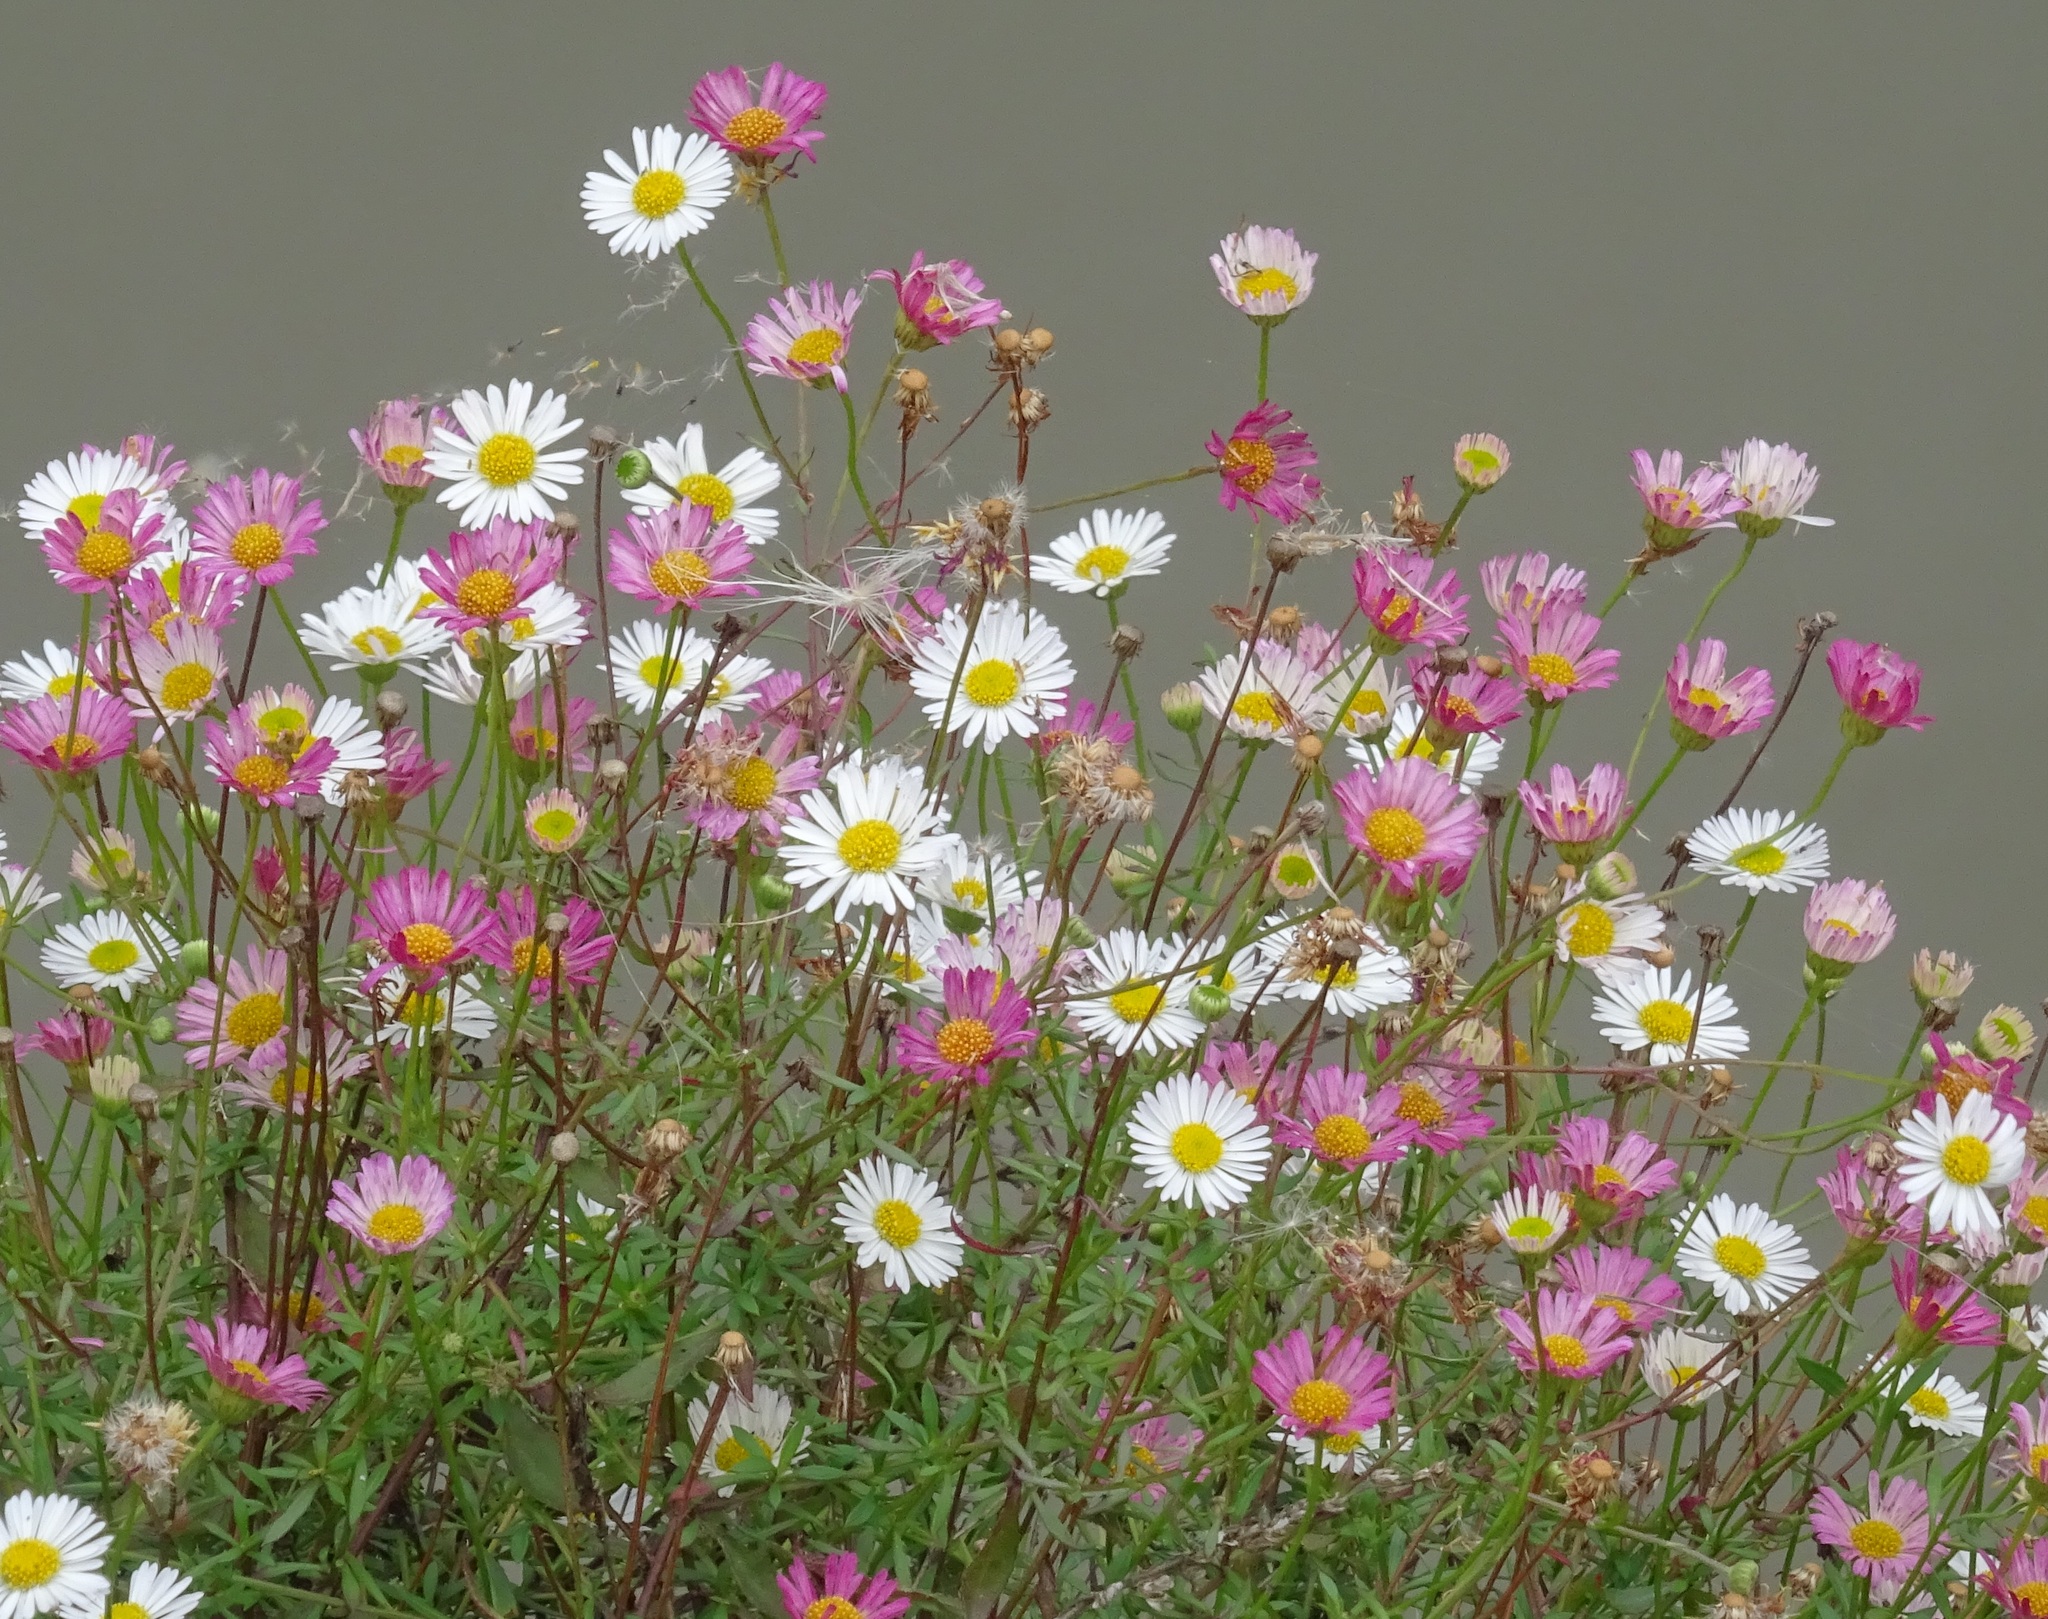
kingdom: Plantae
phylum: Tracheophyta
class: Magnoliopsida
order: Asterales
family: Asteraceae
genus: Erigeron
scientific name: Erigeron karvinskianus
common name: Mexican fleabane
